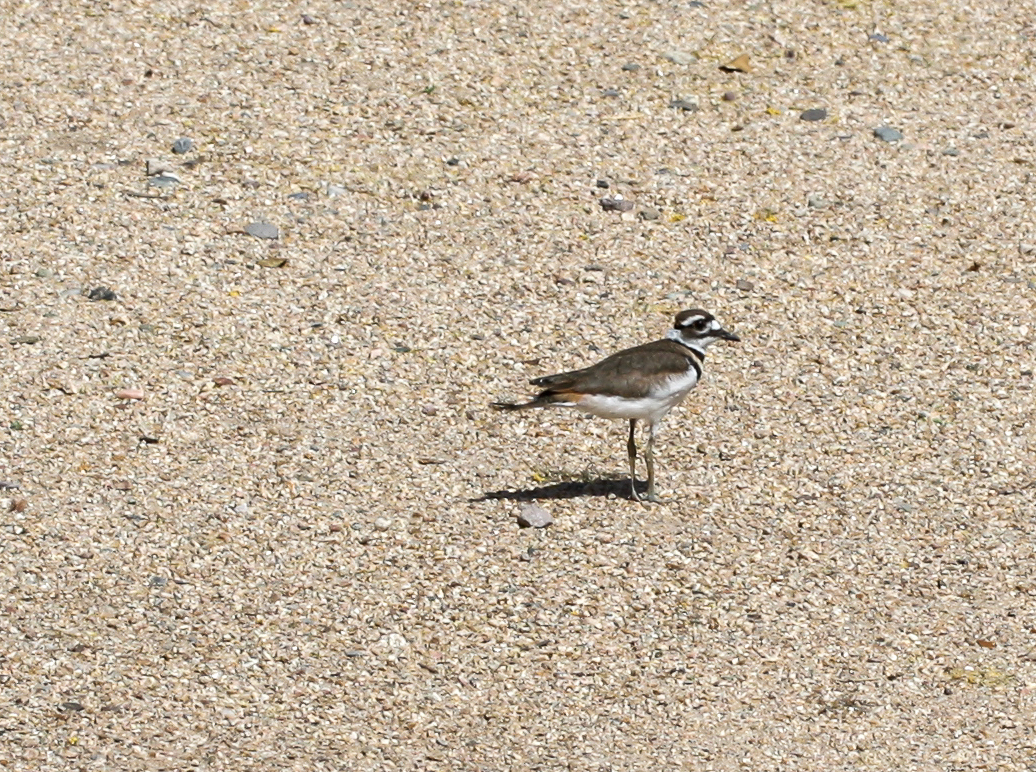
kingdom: Animalia
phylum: Chordata
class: Aves
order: Charadriiformes
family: Charadriidae
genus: Charadrius
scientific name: Charadrius vociferus
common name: Killdeer
